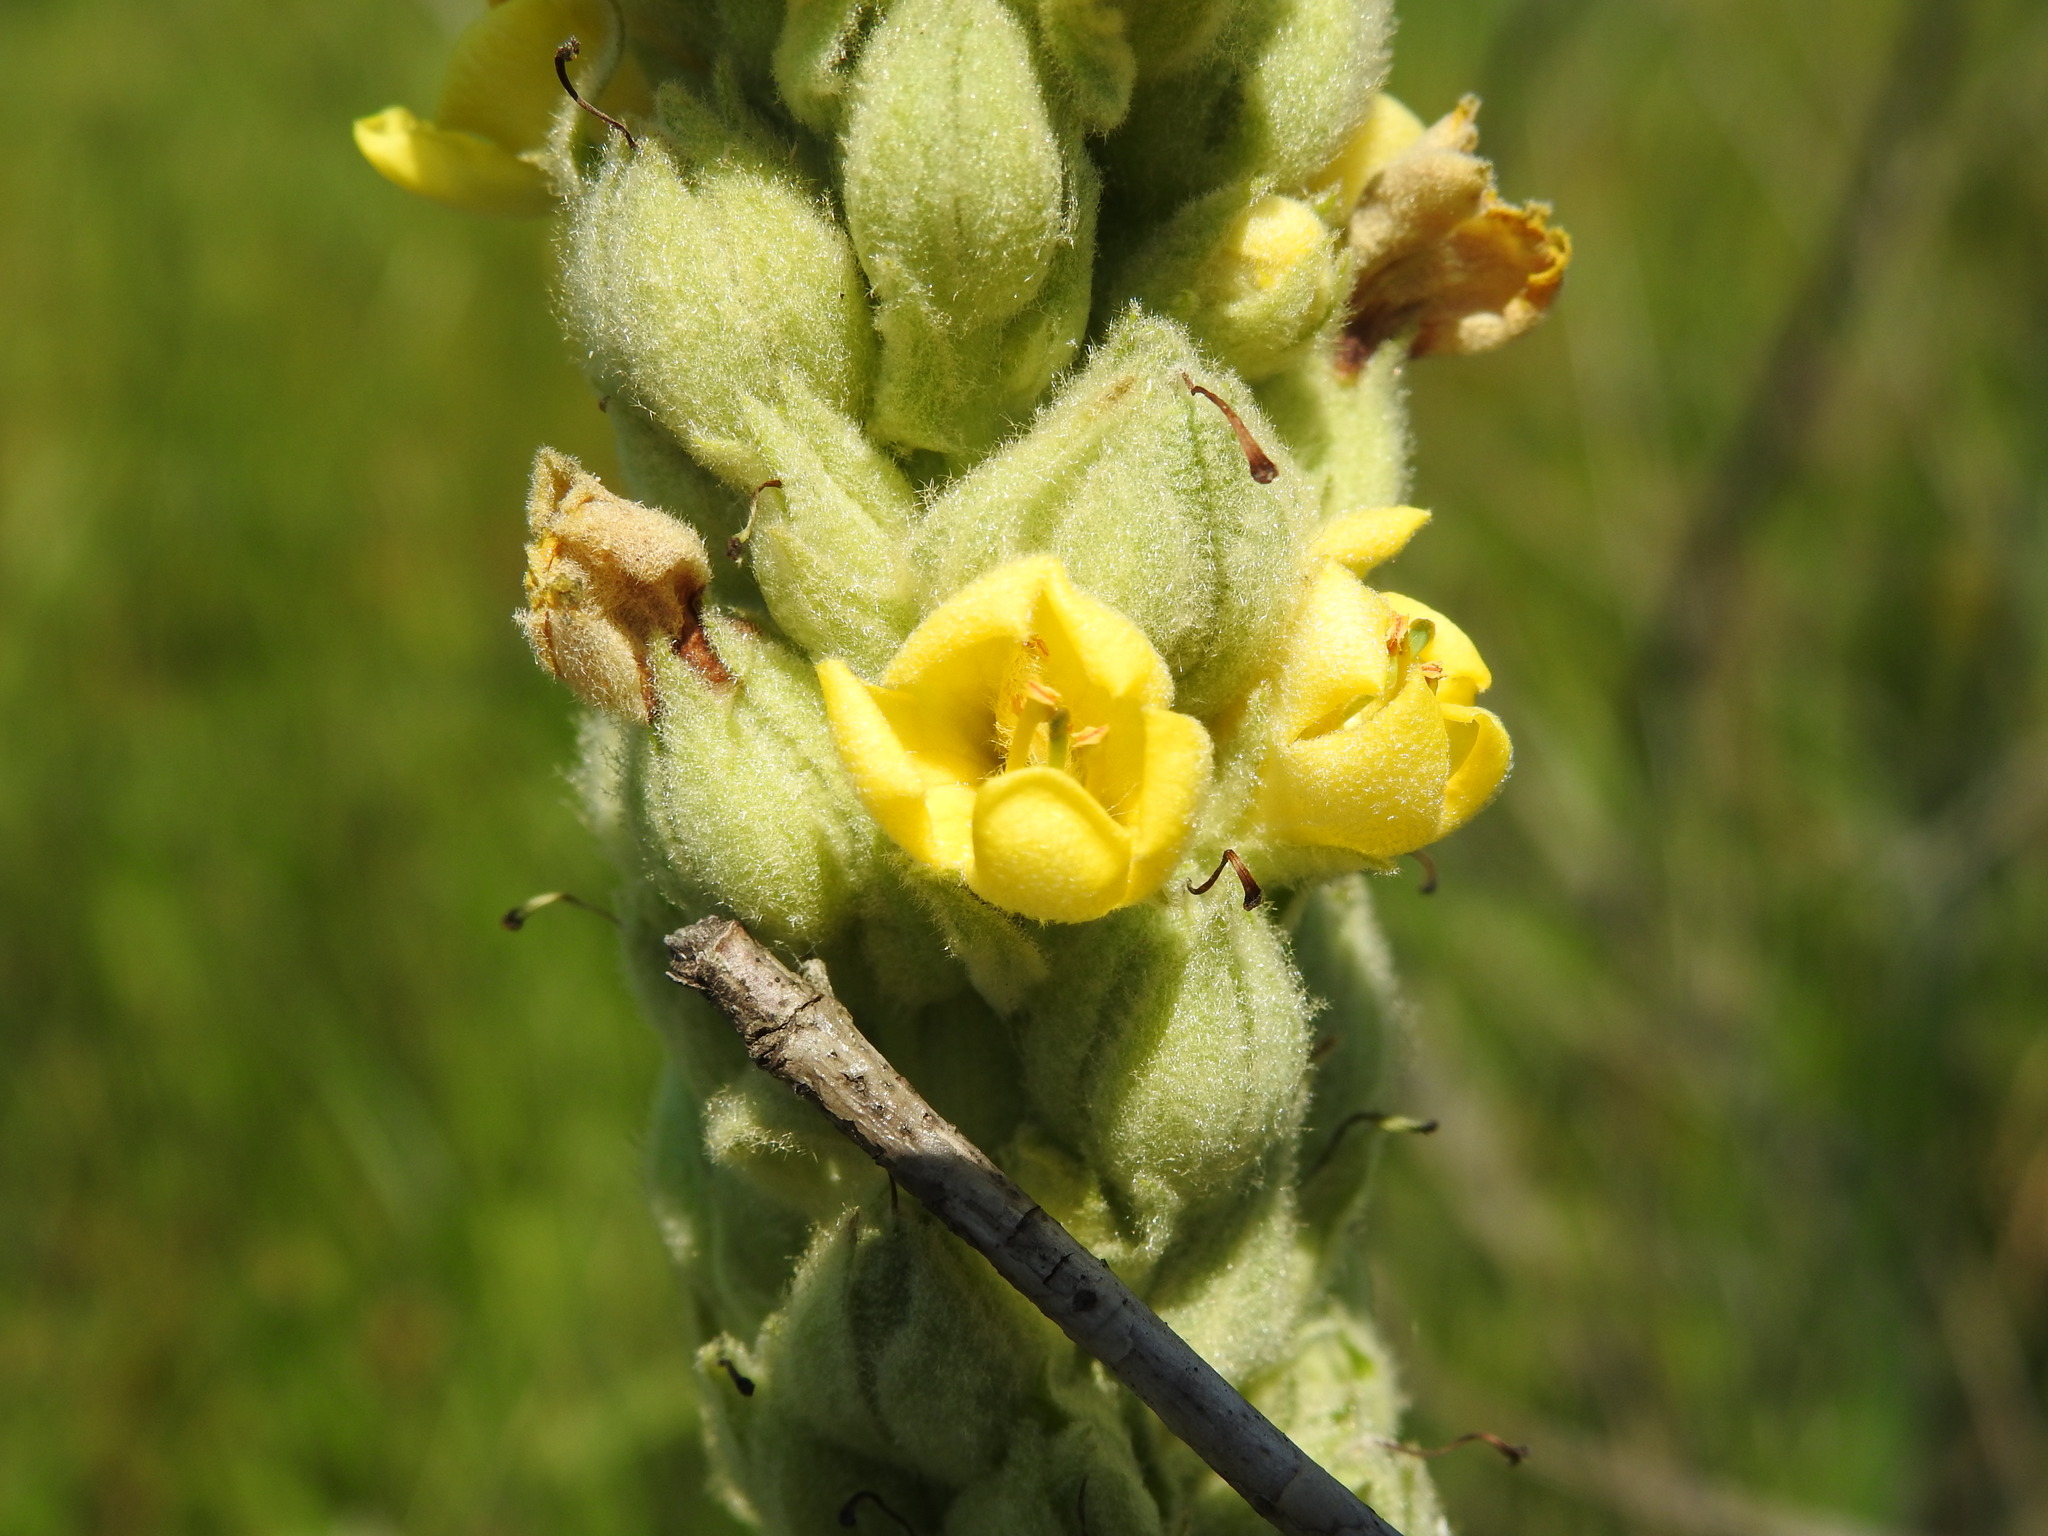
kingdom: Plantae
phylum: Tracheophyta
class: Magnoliopsida
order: Lamiales
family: Scrophulariaceae
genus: Verbascum
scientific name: Verbascum thapsus
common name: Common mullein
